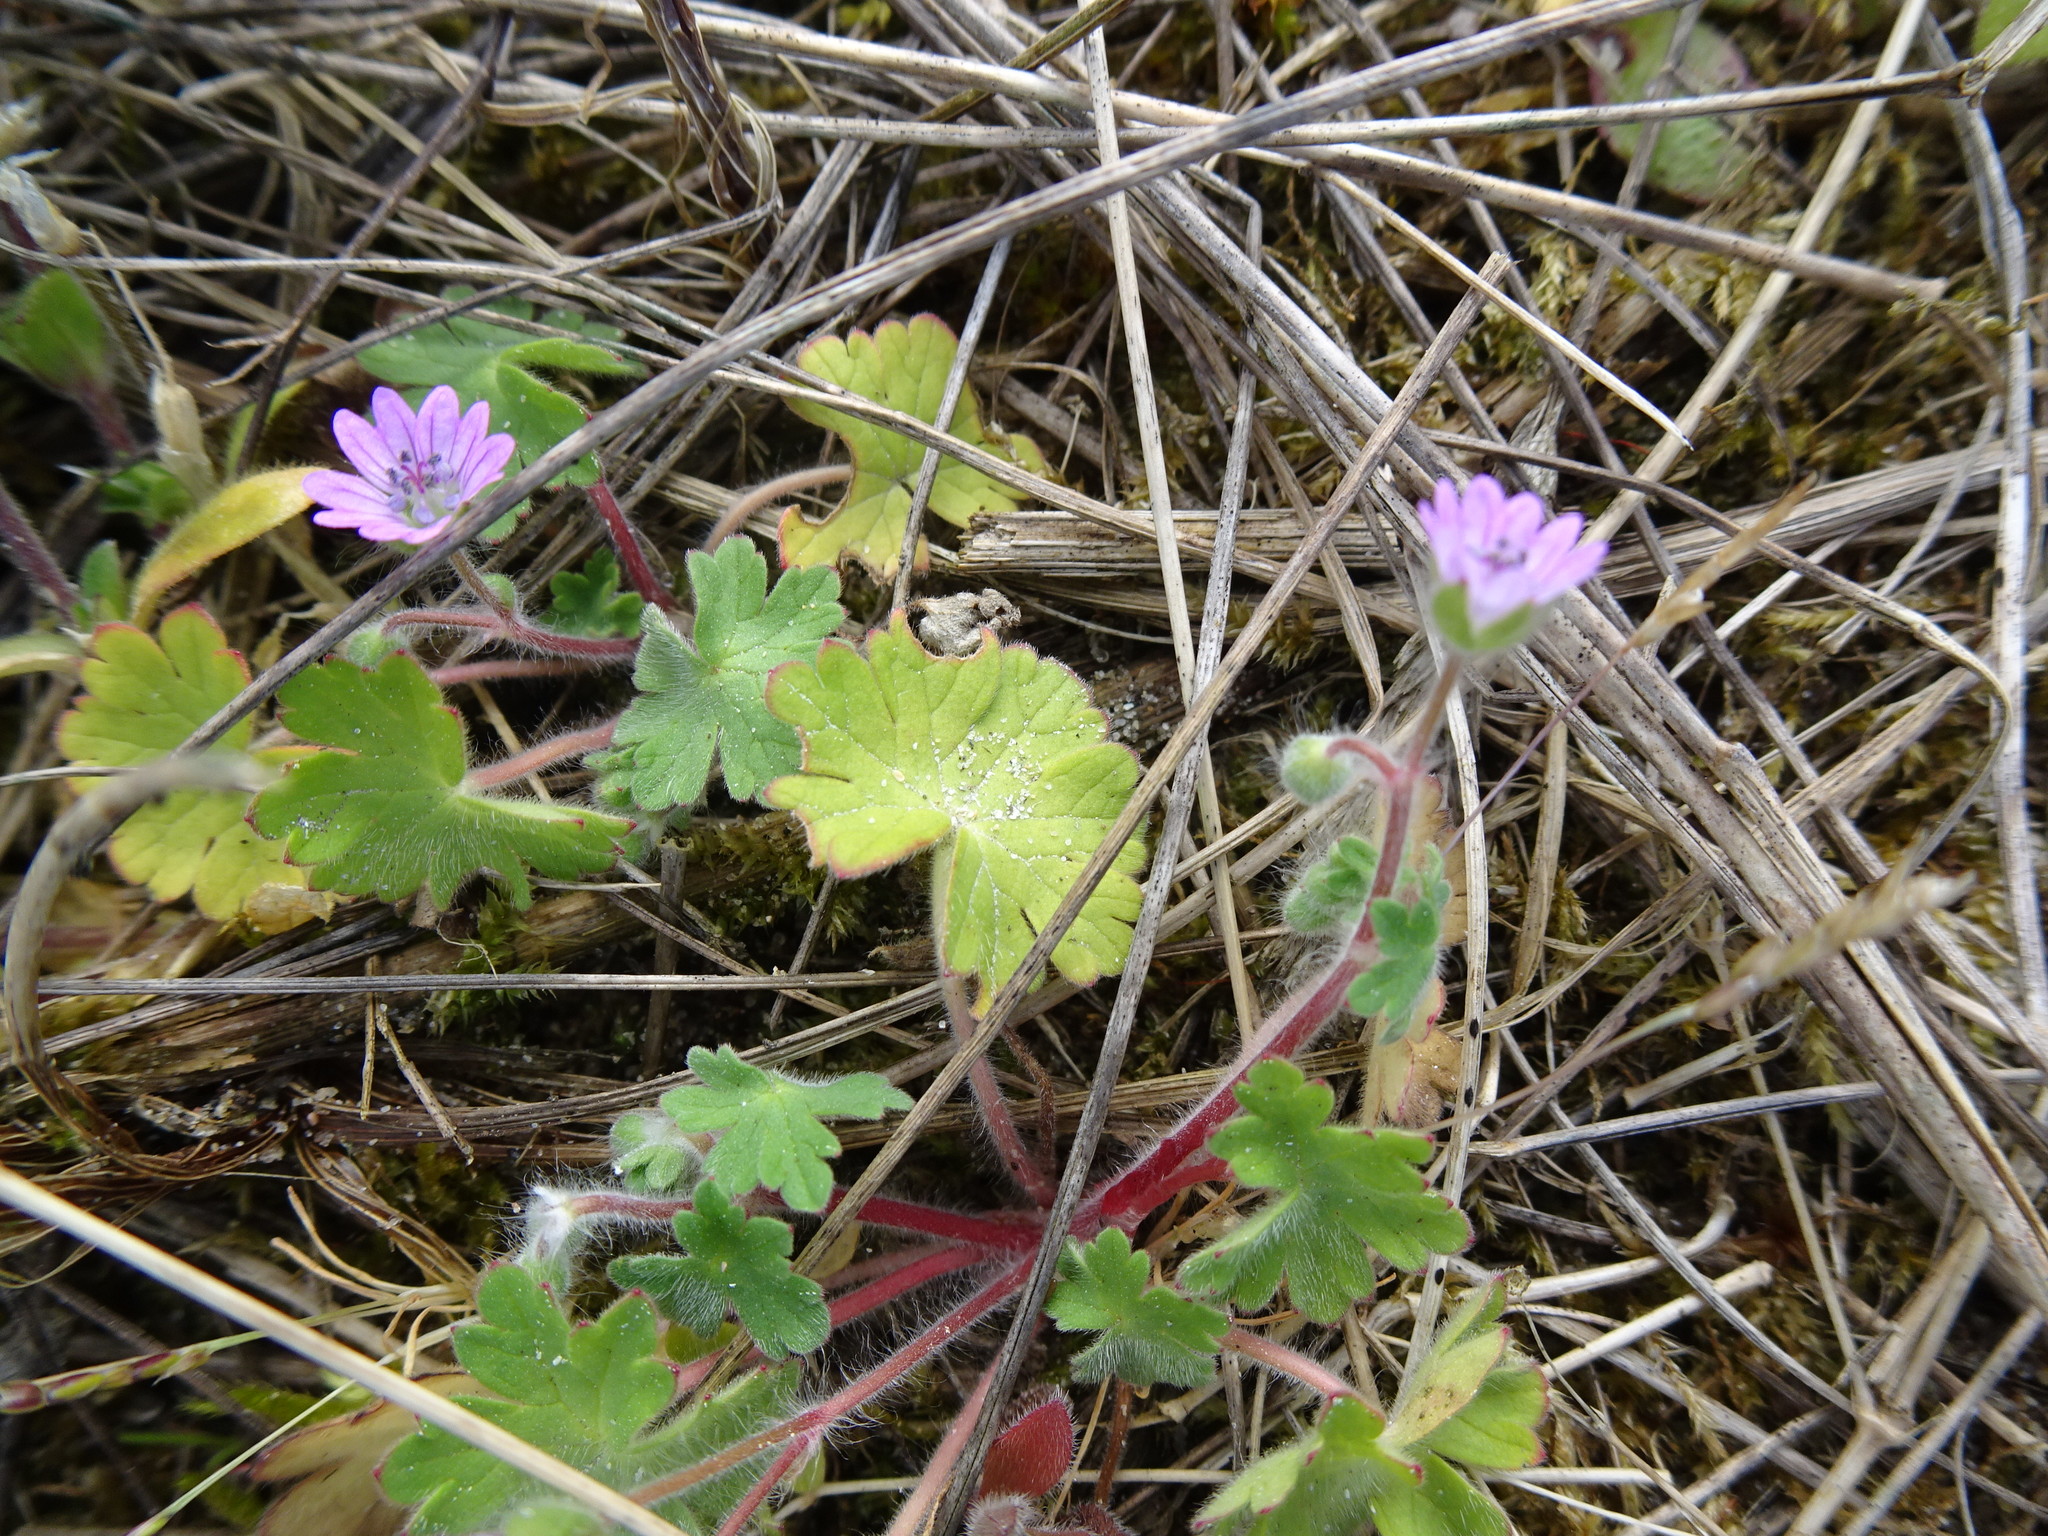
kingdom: Plantae
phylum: Tracheophyta
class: Magnoliopsida
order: Geraniales
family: Geraniaceae
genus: Geranium
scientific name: Geranium molle
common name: Dove's-foot crane's-bill
